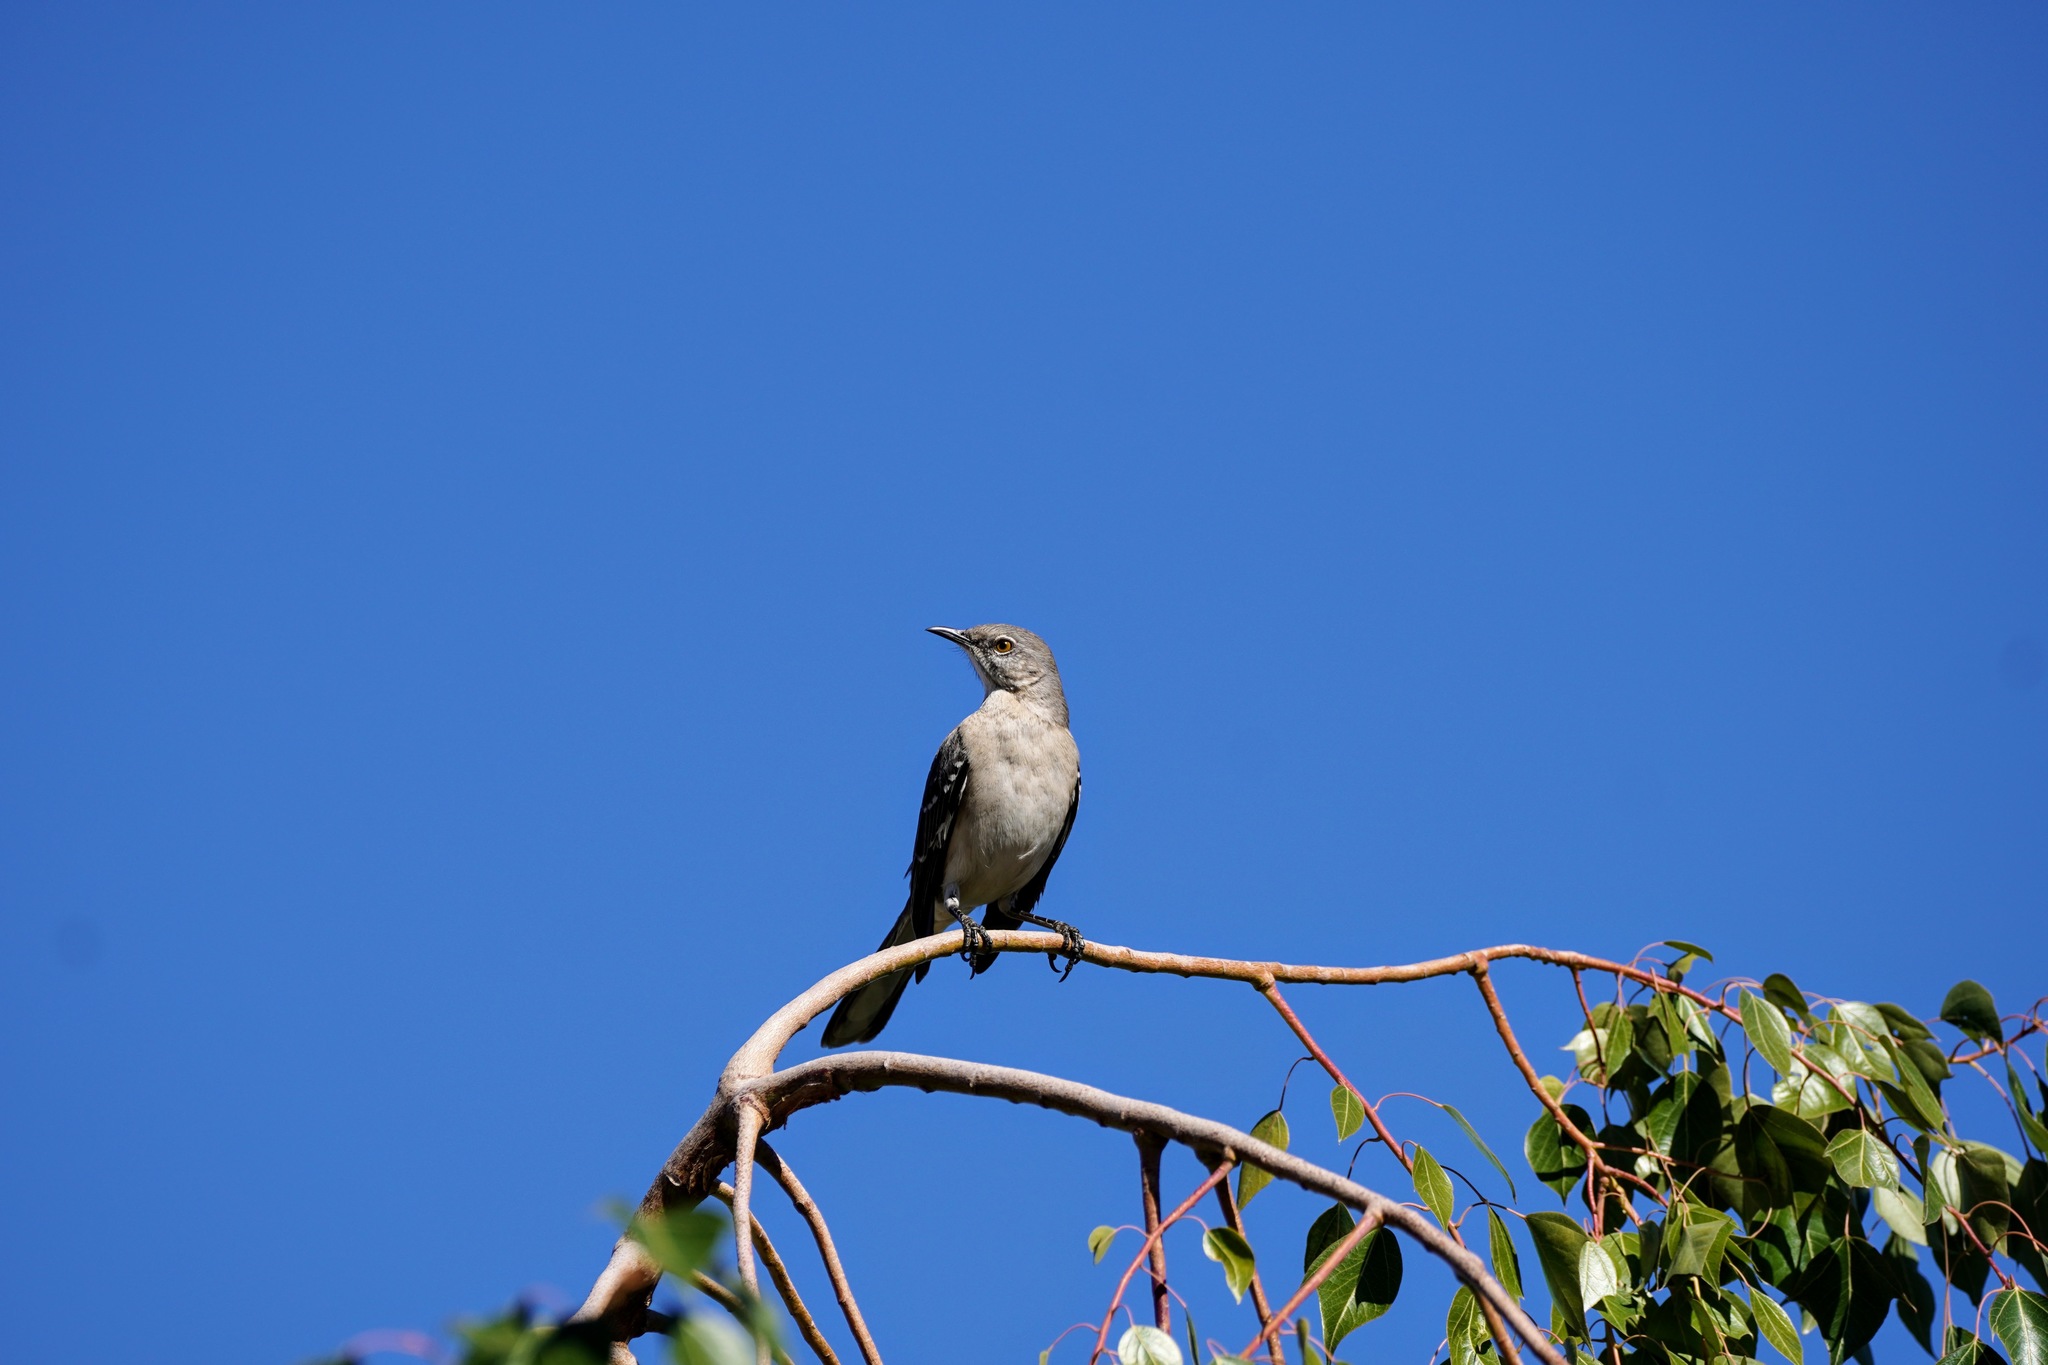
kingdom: Animalia
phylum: Chordata
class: Aves
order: Passeriformes
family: Mimidae
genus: Mimus
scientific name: Mimus polyglottos
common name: Northern mockingbird
